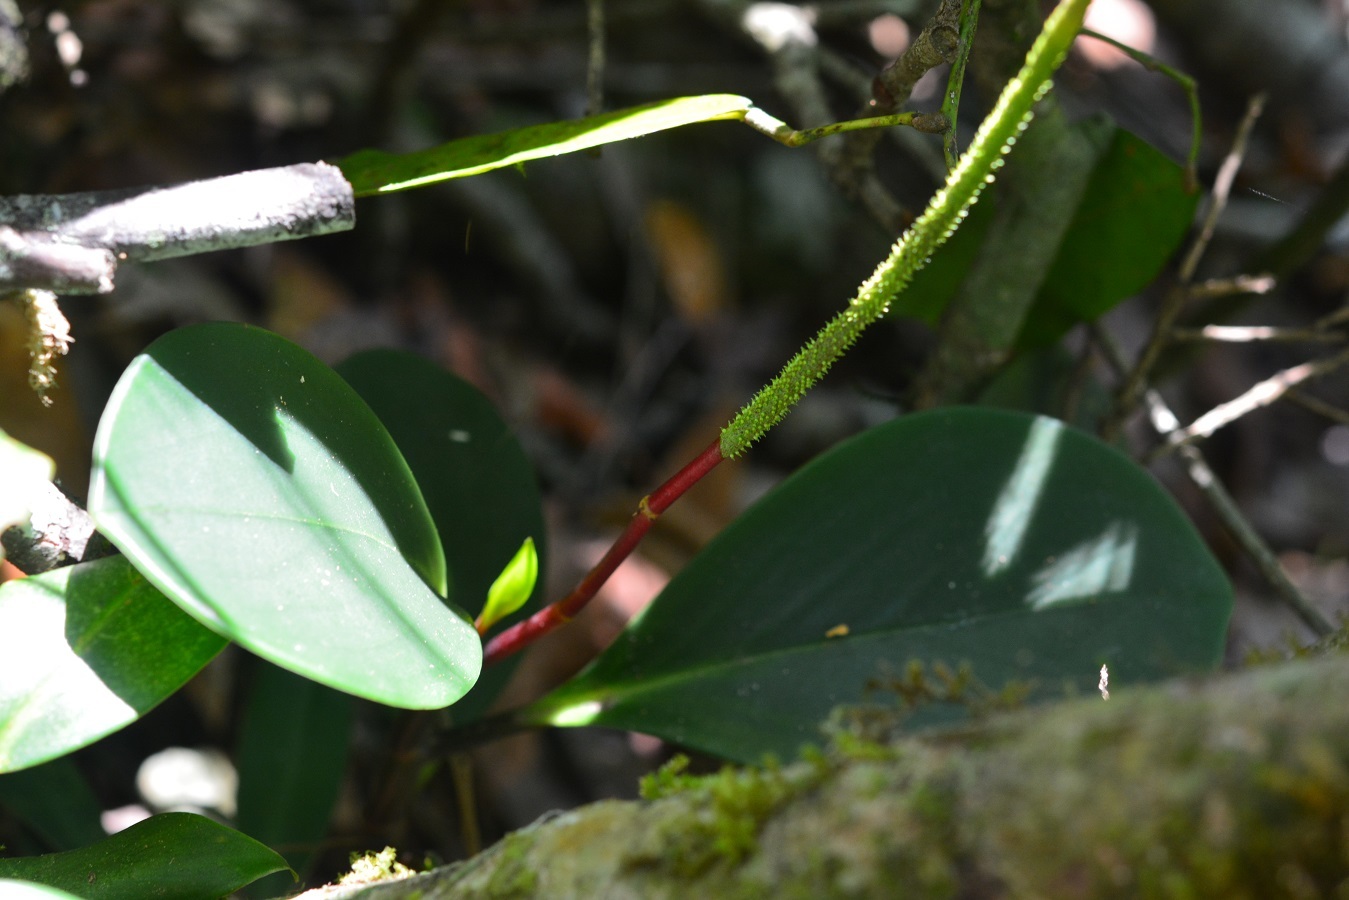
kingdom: Plantae
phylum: Tracheophyta
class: Magnoliopsida
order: Piperales
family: Piperaceae
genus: Peperomia
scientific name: Peperomia magnoliifolia
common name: Spoonleaf peperomia
